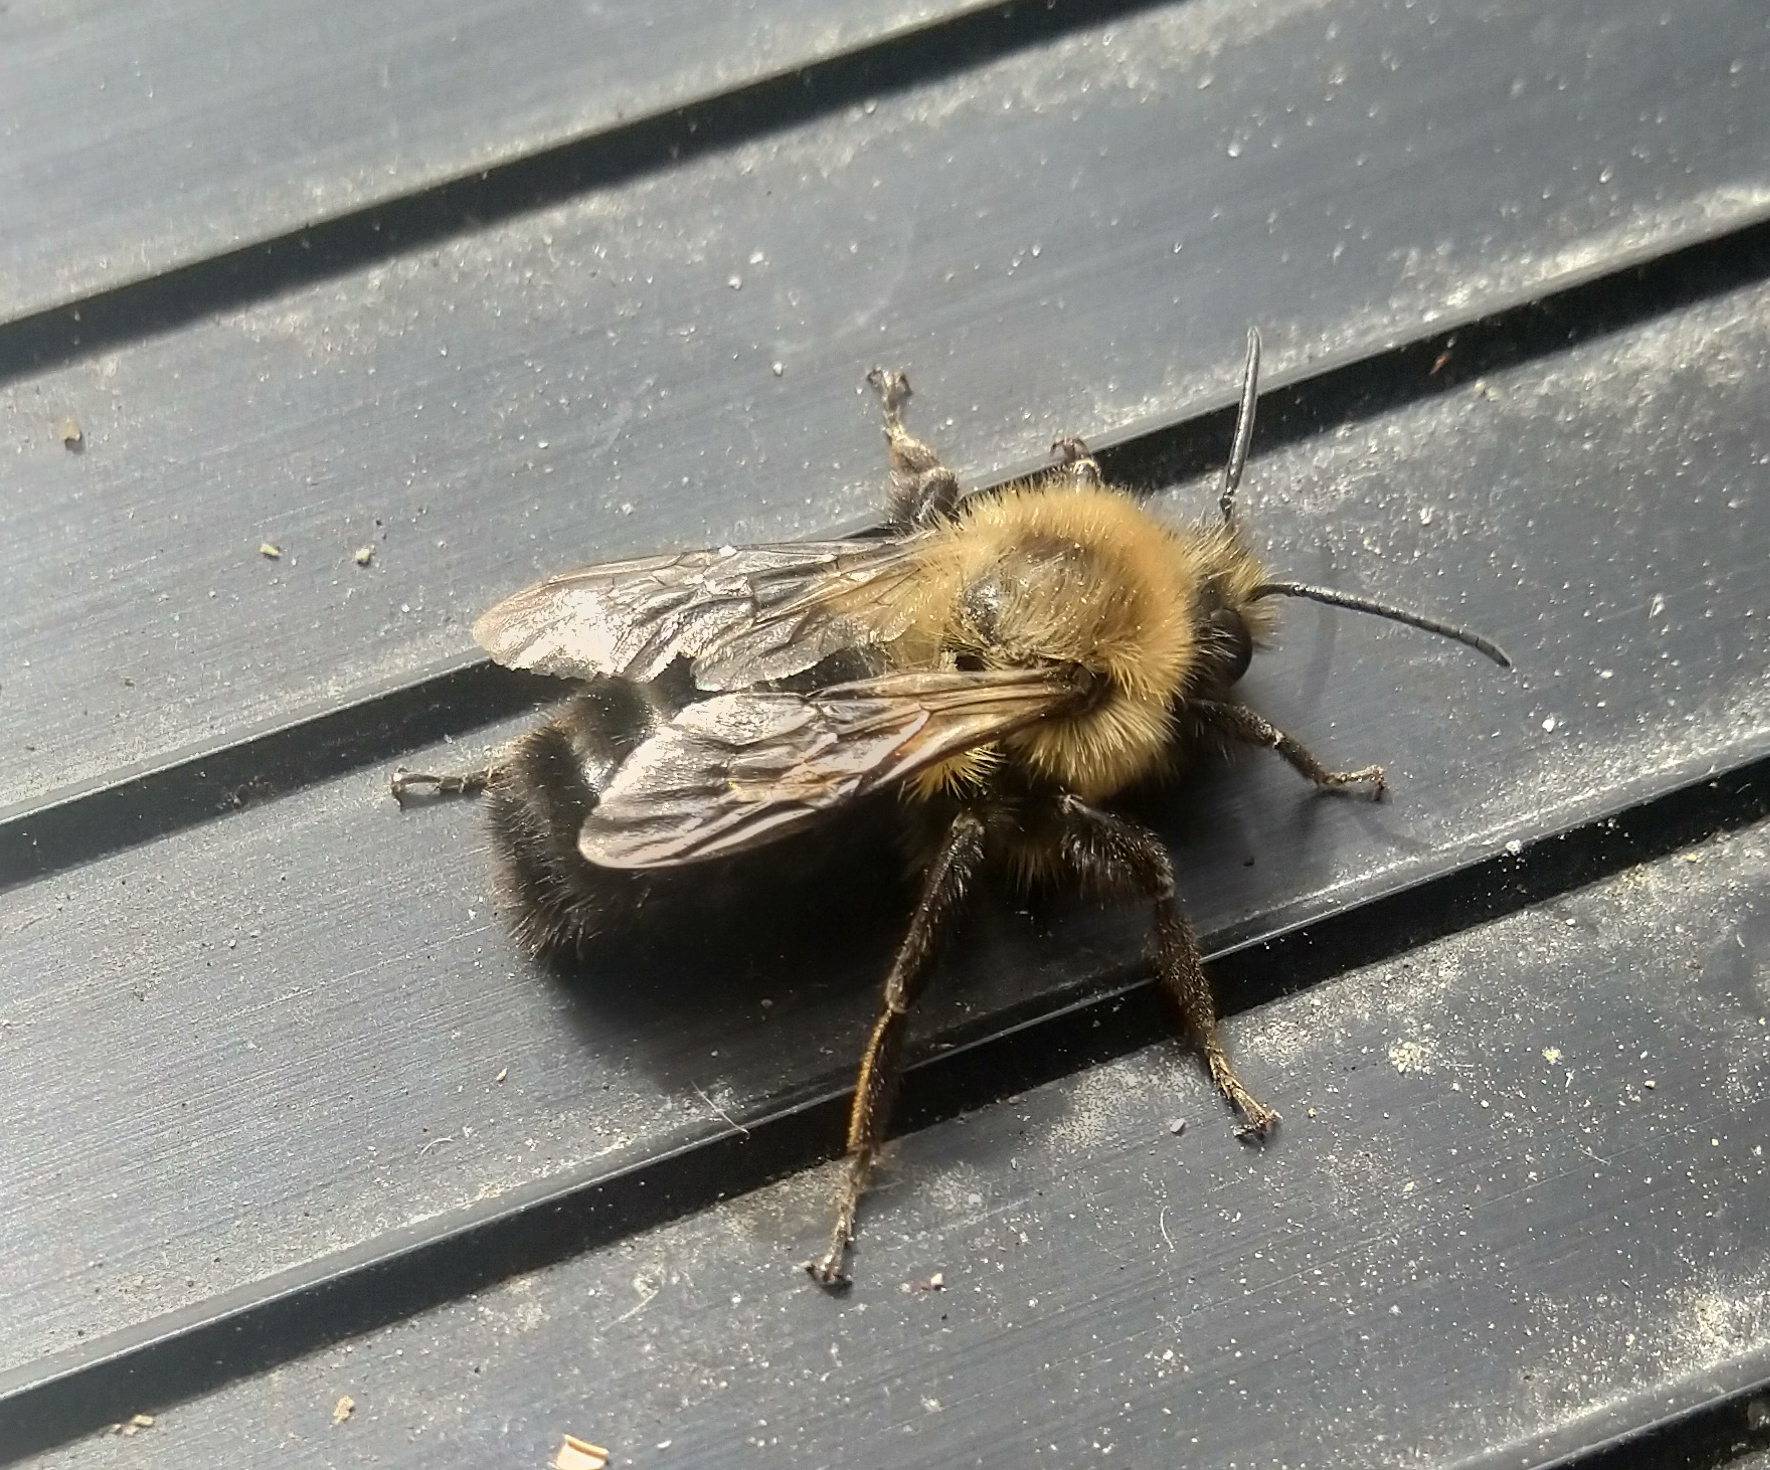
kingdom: Animalia
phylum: Arthropoda
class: Insecta
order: Hymenoptera
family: Apidae
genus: Bombus
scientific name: Bombus impatiens
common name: Common eastern bumble bee
